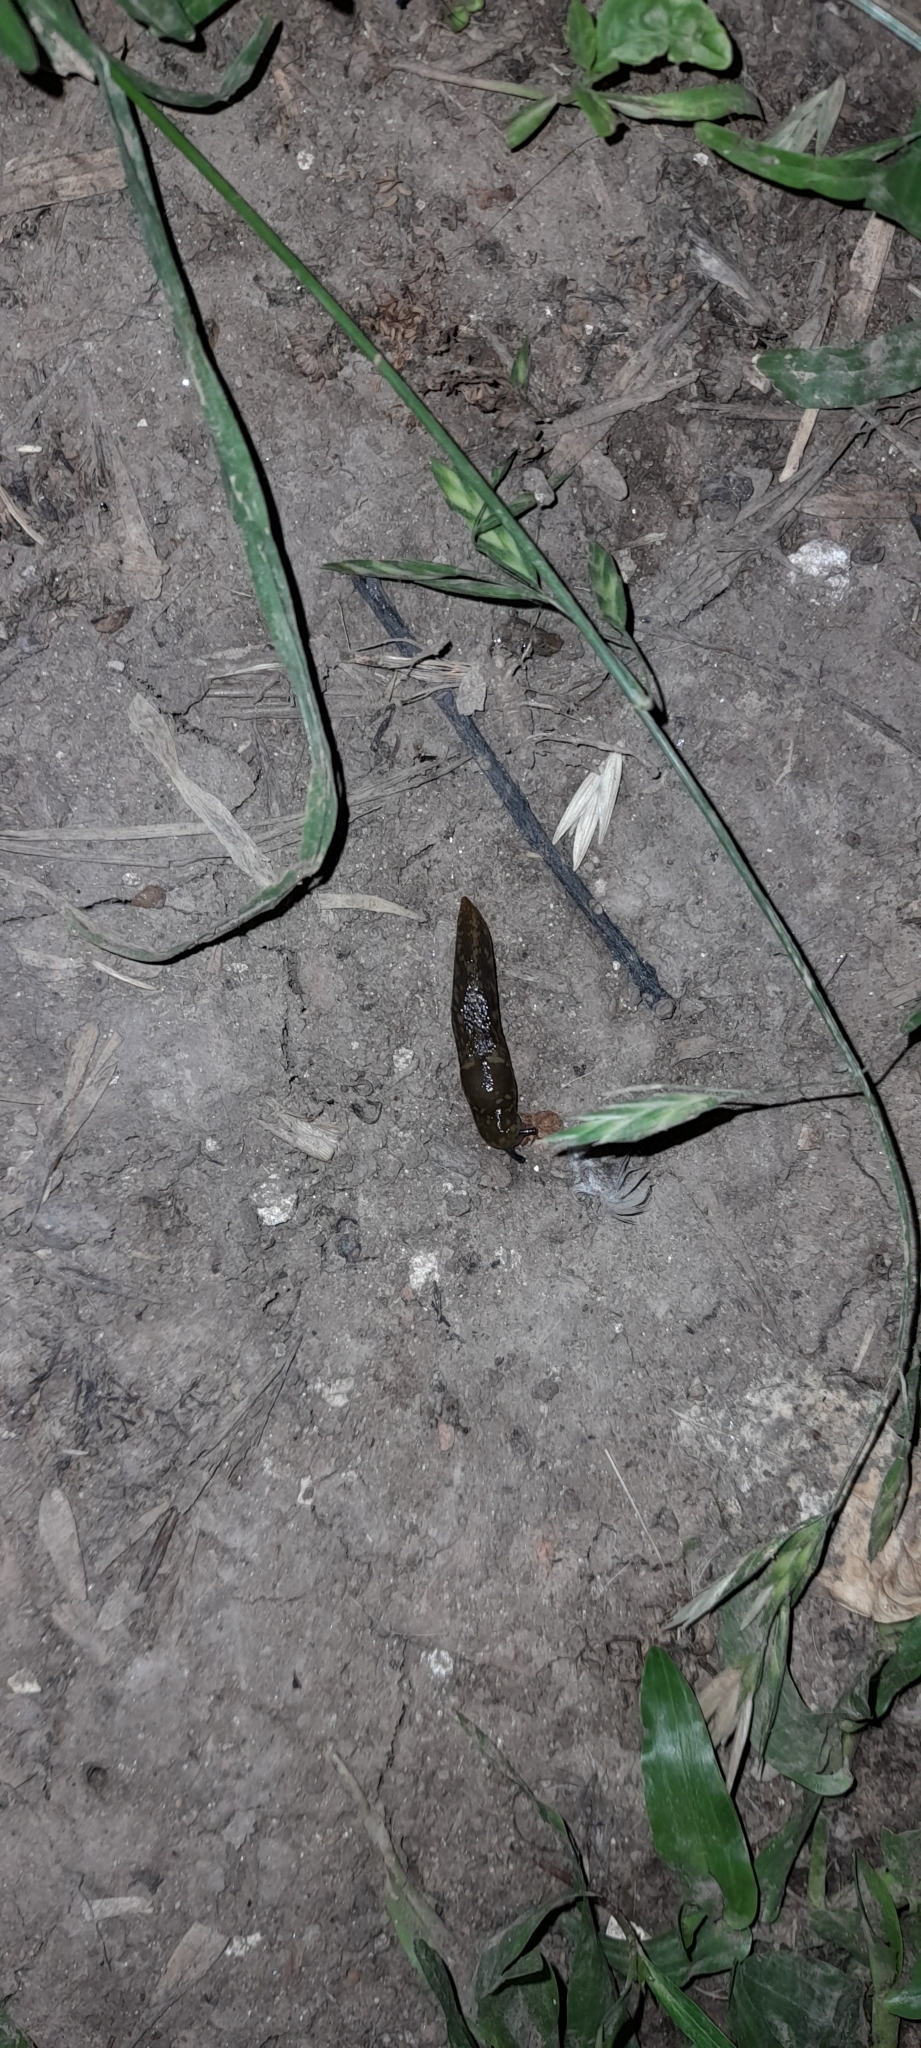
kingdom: Animalia
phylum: Mollusca
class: Gastropoda
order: Stylommatophora
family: Limacidae
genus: Limacus
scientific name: Limacus flavus
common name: Yellow gardenslug
